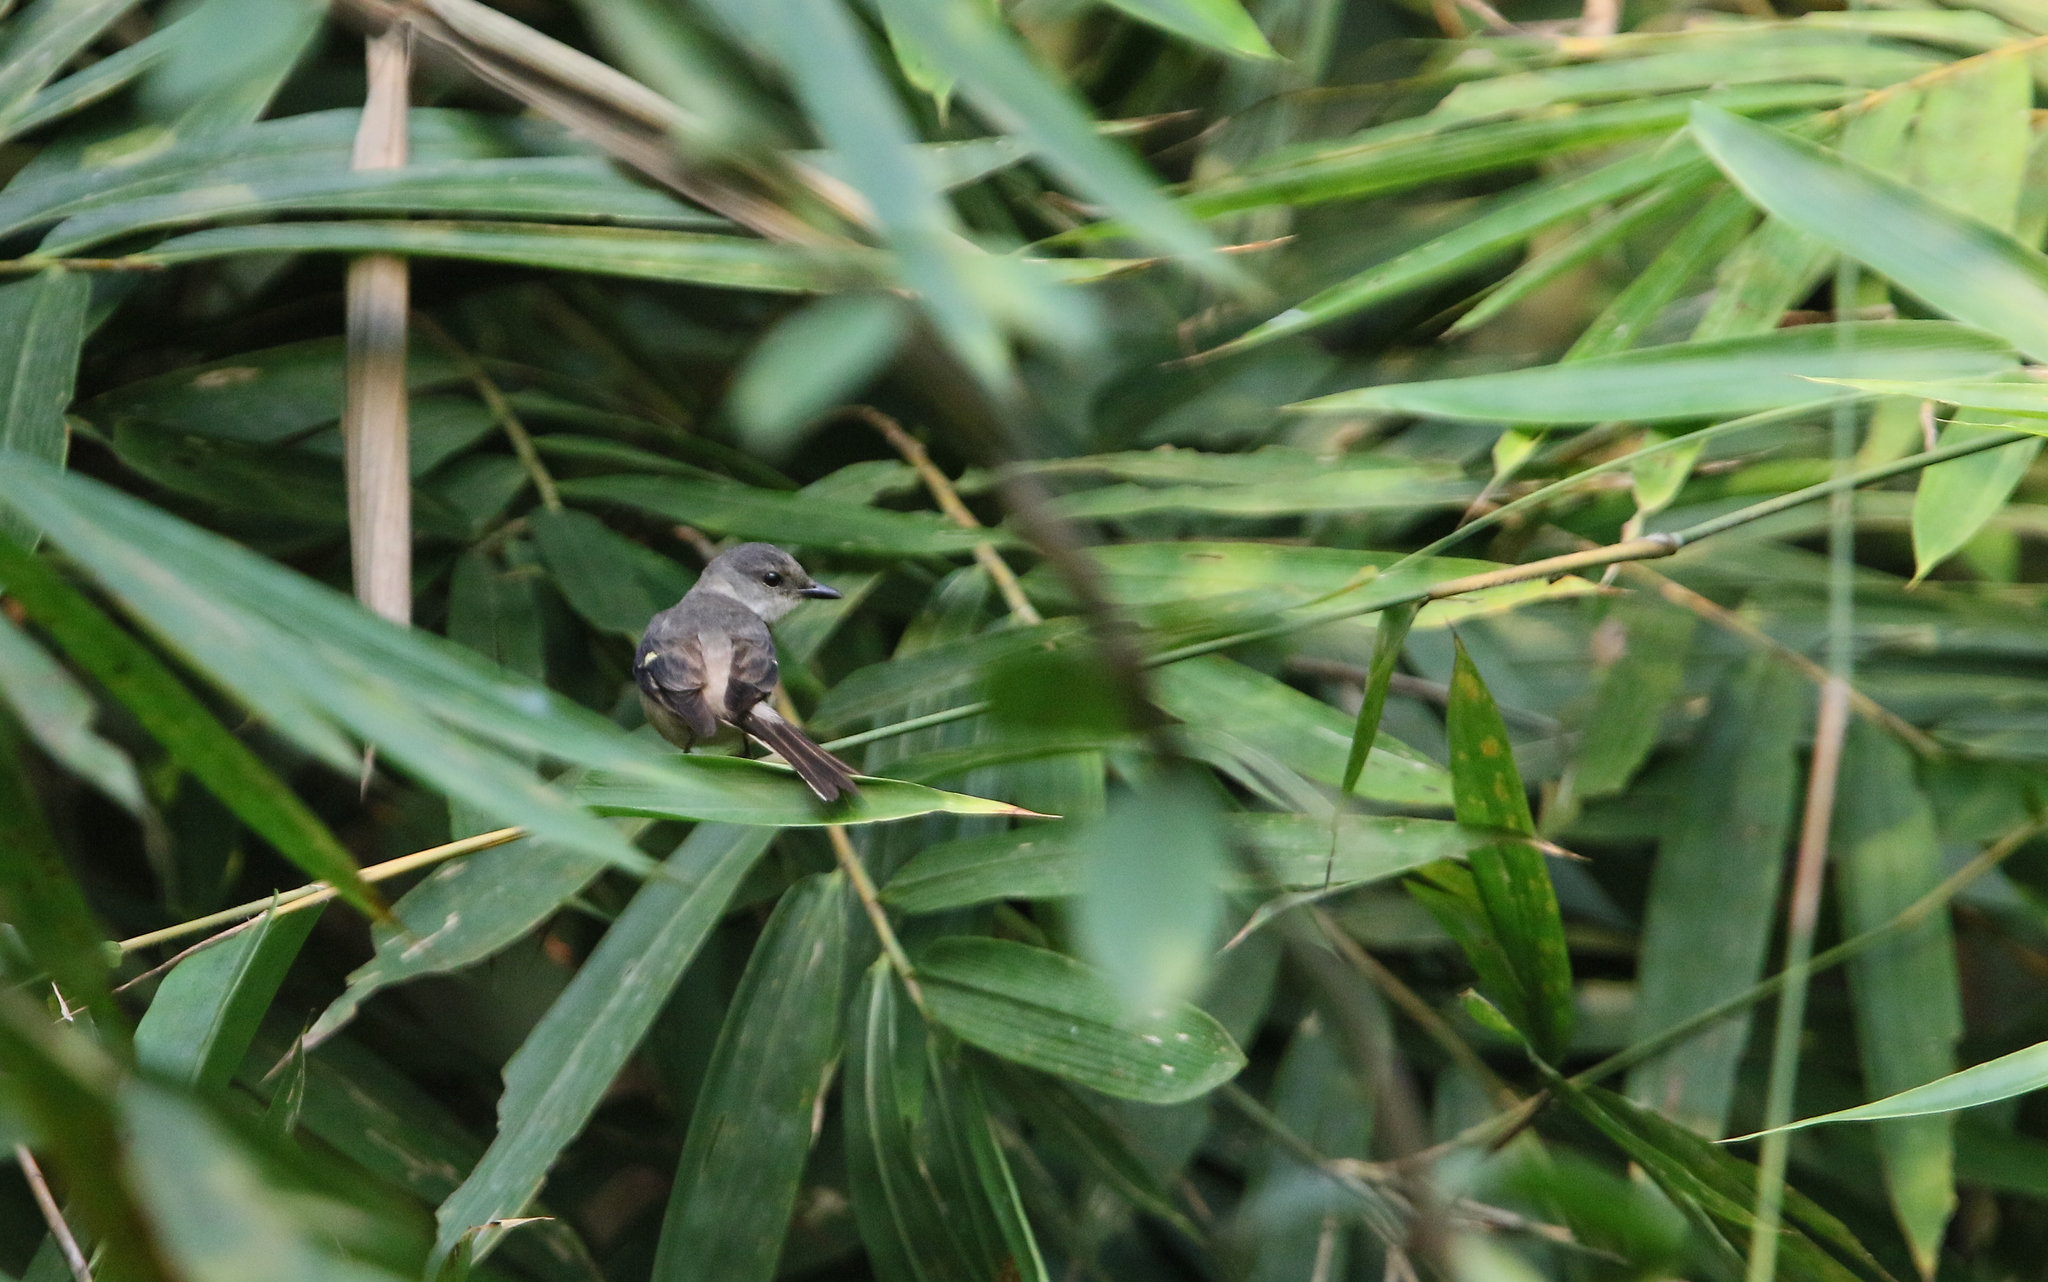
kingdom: Animalia
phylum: Chordata
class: Aves
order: Passeriformes
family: Campephagidae
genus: Pericrocotus
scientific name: Pericrocotus cantonensis
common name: Swinhoe's minivet
